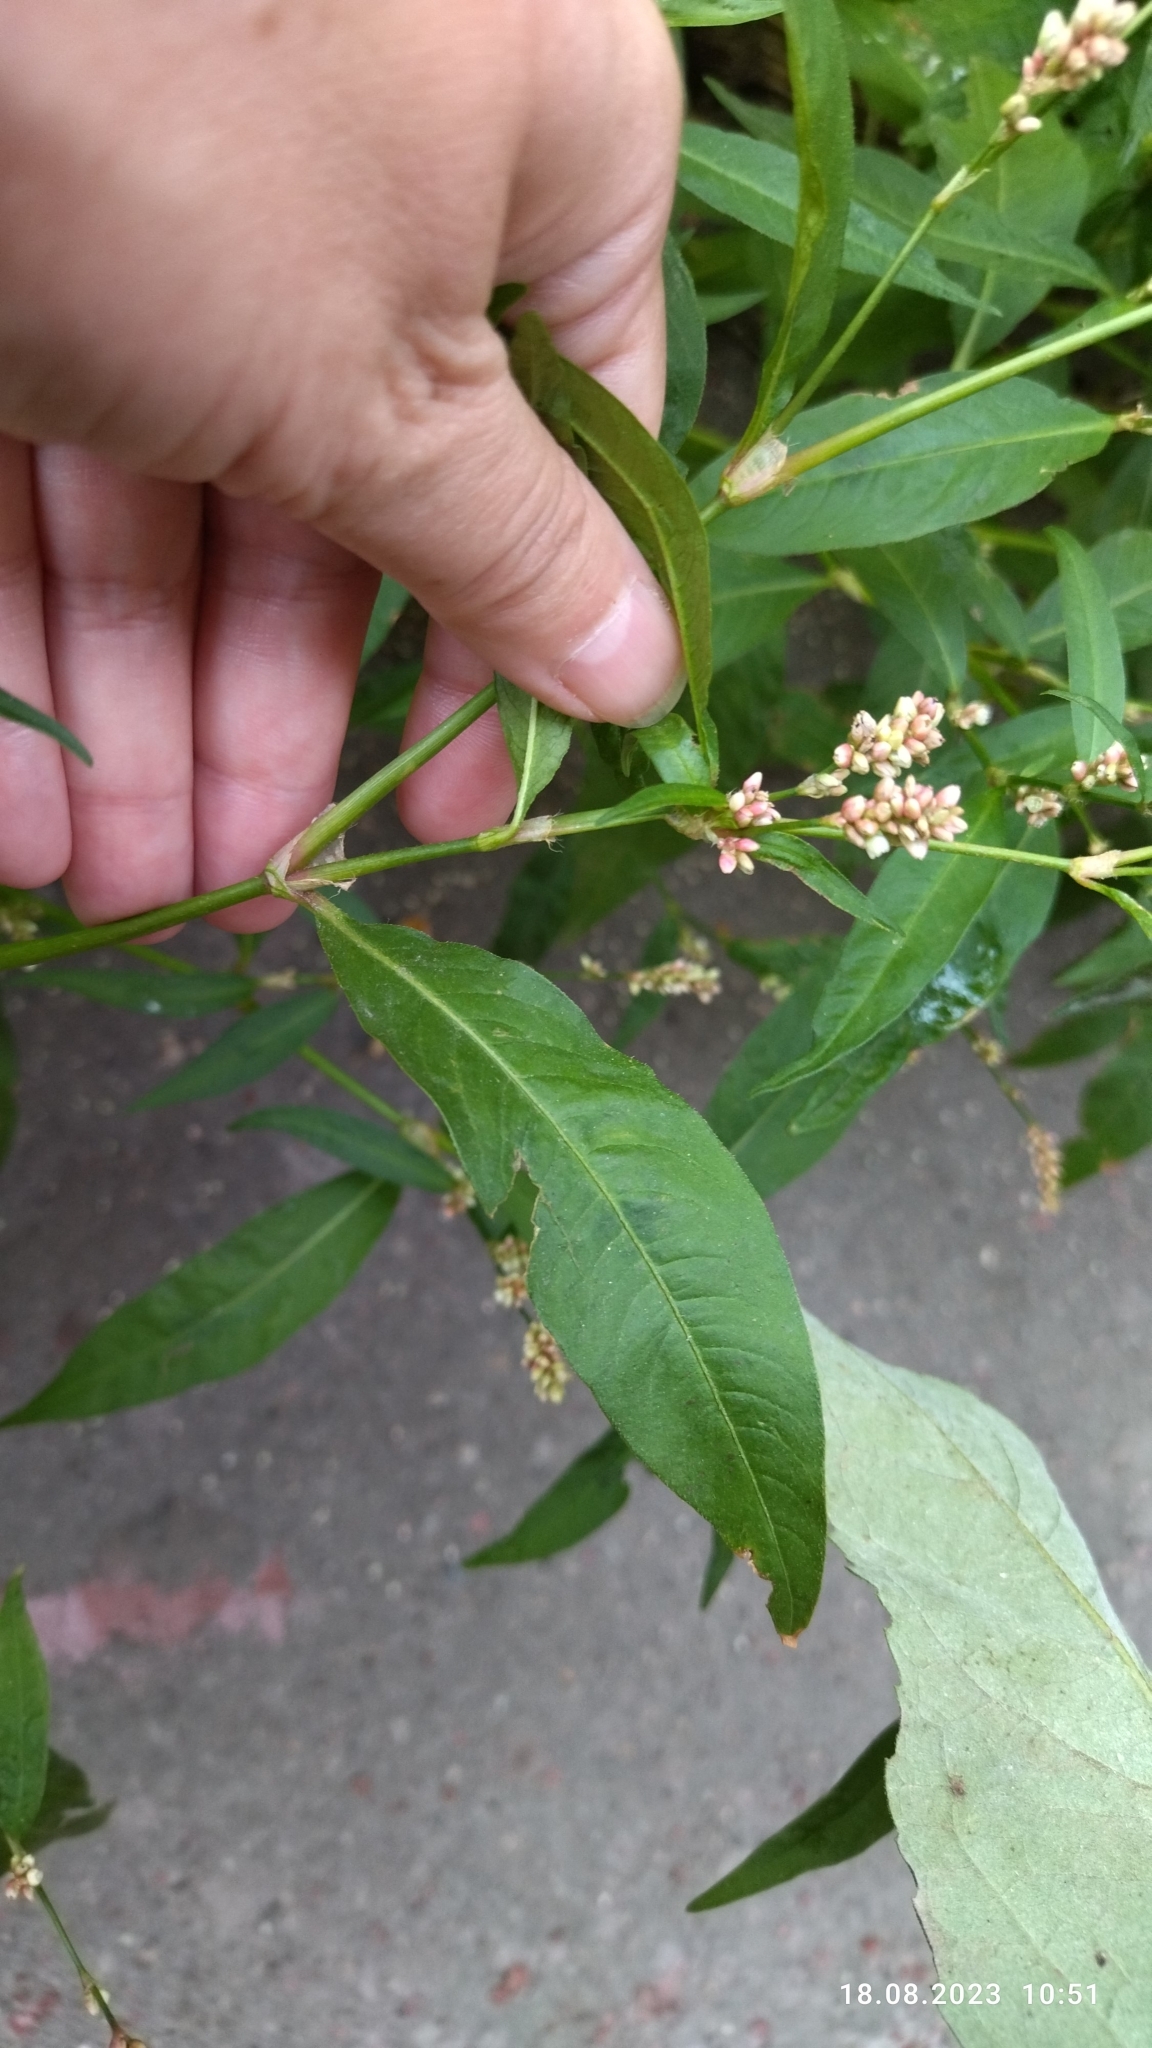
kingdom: Plantae
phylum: Tracheophyta
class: Magnoliopsida
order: Caryophyllales
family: Polygonaceae
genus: Persicaria
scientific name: Persicaria maculosa
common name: Redshank
